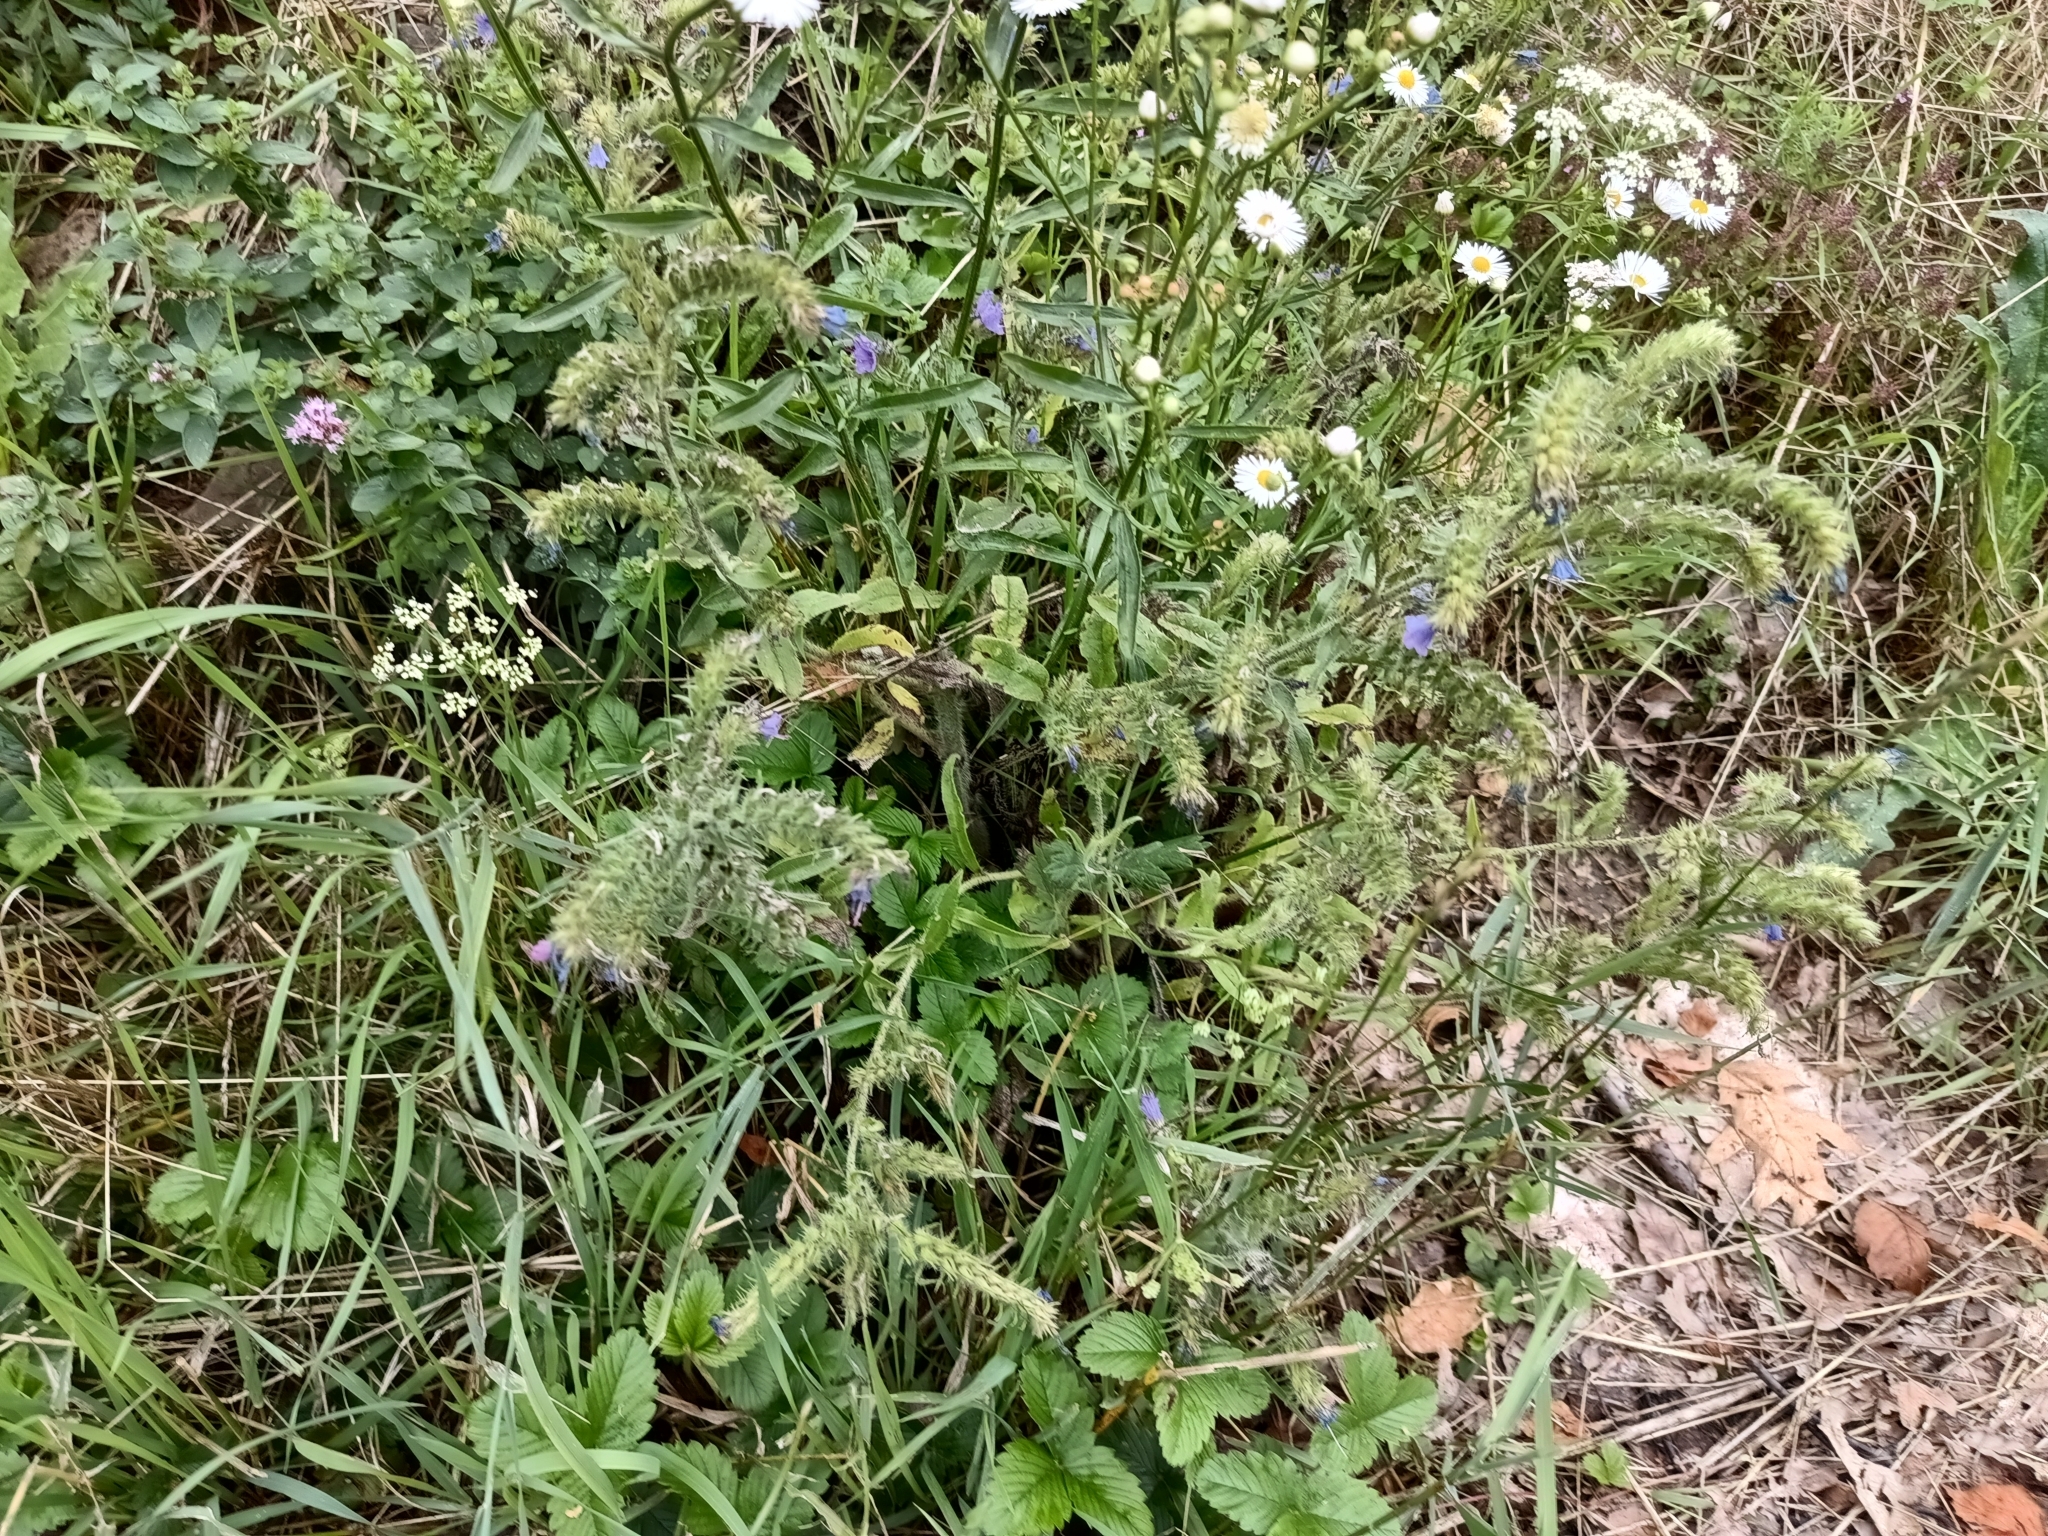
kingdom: Plantae
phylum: Tracheophyta
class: Magnoliopsida
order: Boraginales
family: Boraginaceae
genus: Echium
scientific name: Echium vulgare
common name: Common viper's bugloss
